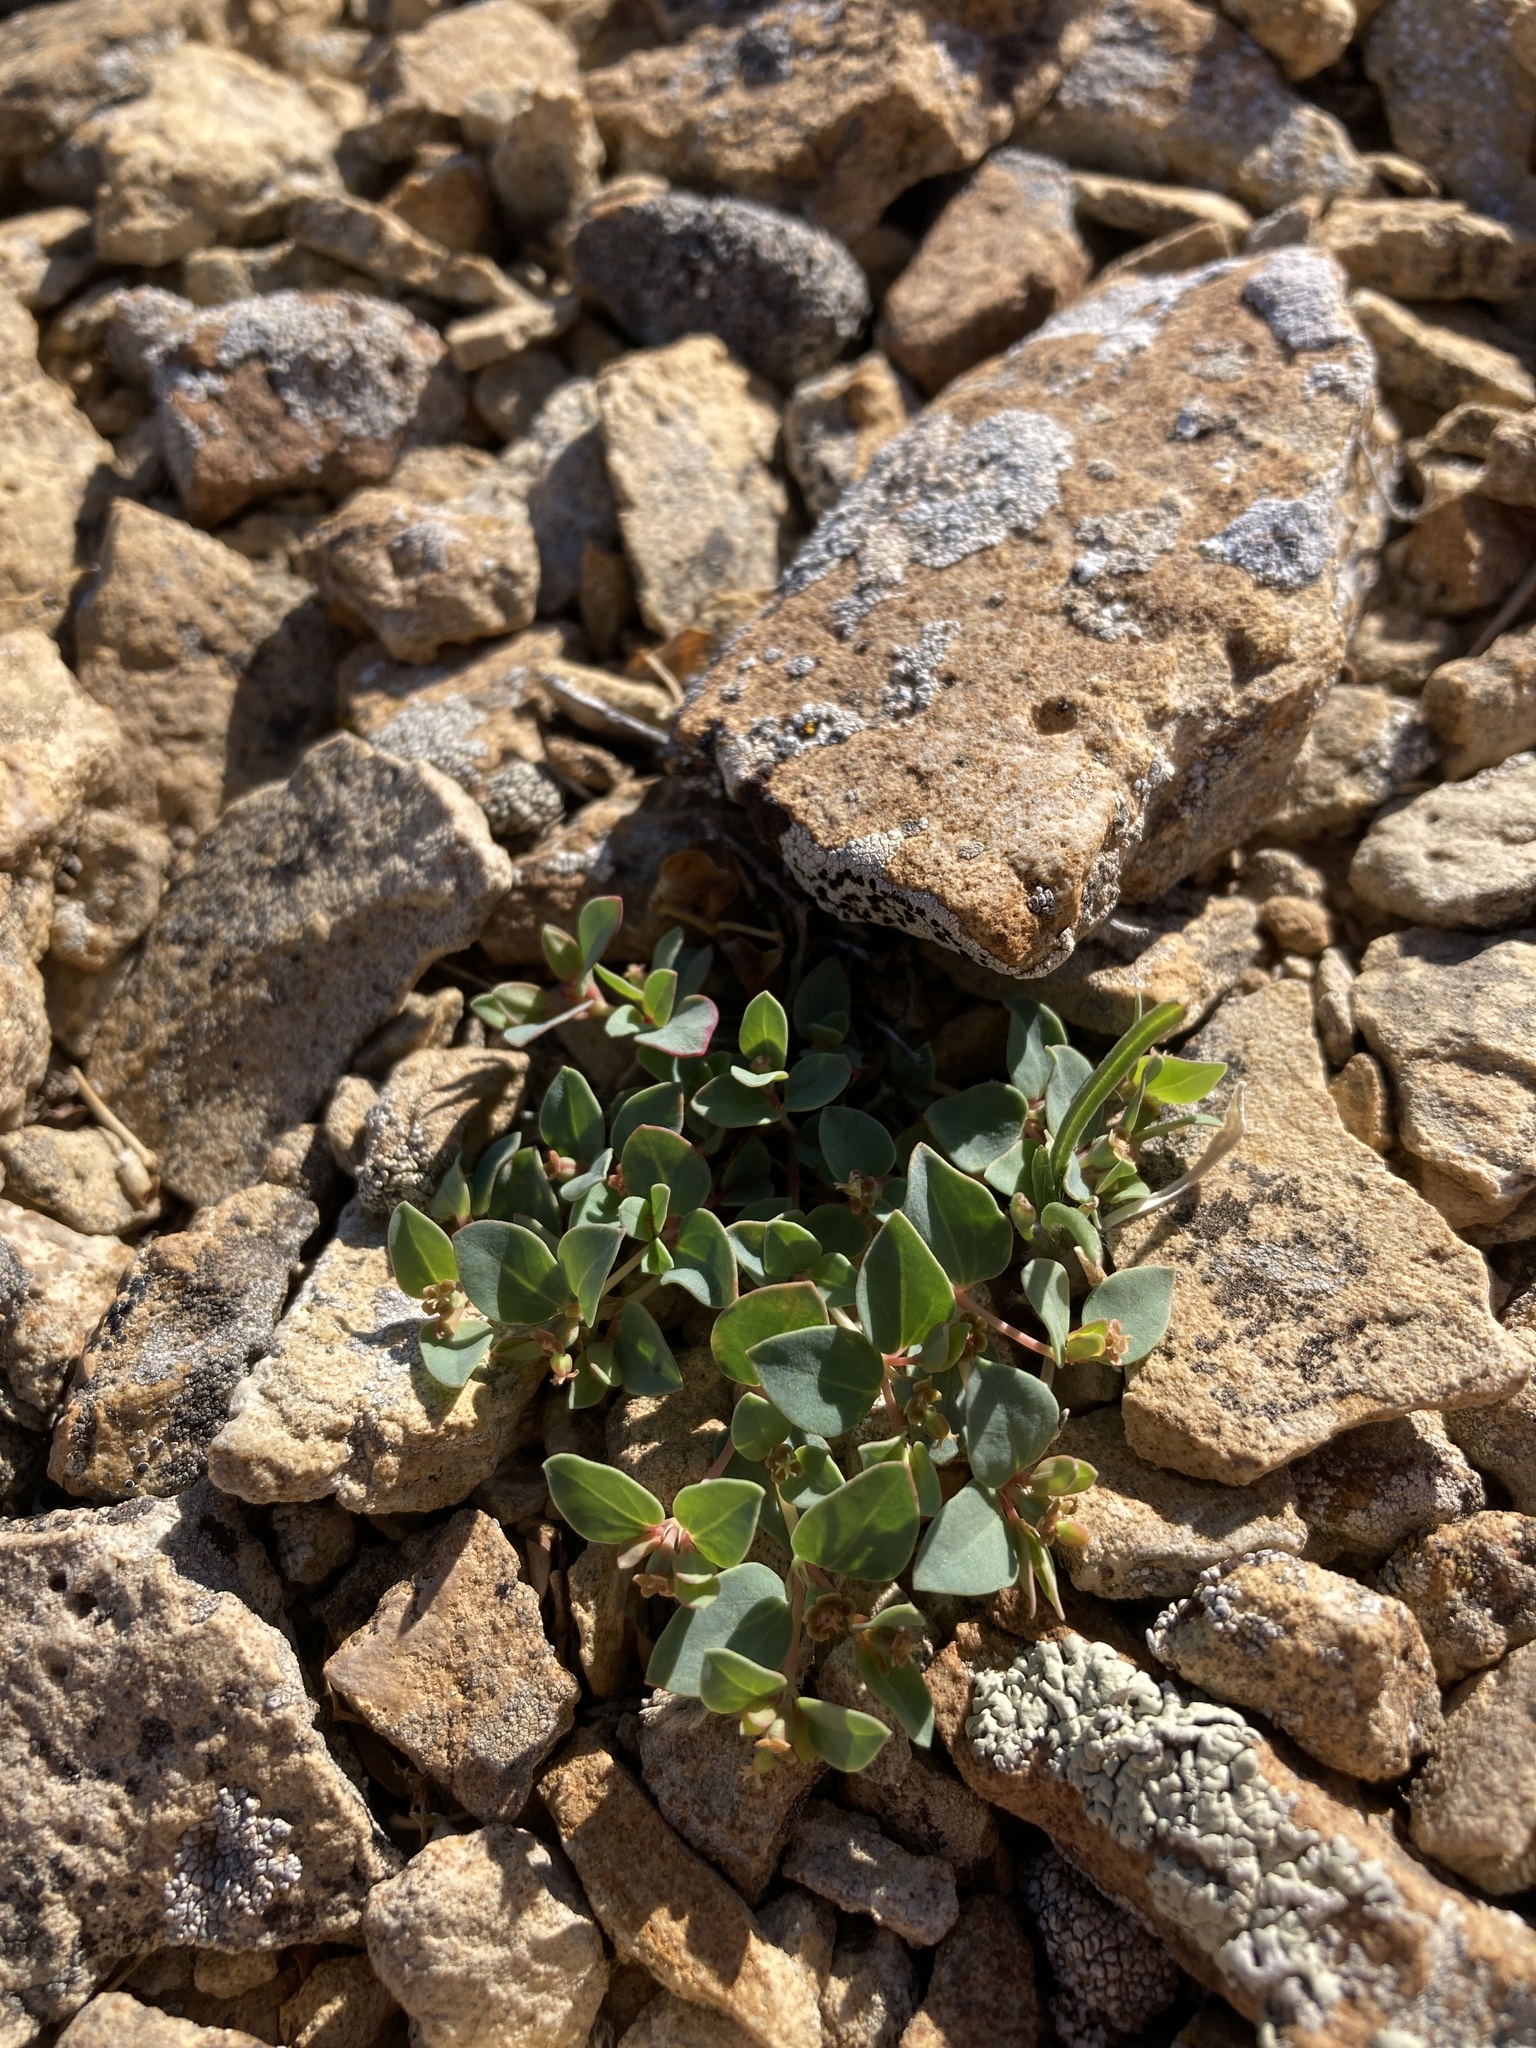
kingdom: Plantae
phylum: Tracheophyta
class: Magnoliopsida
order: Malpighiales
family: Euphorbiaceae
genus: Euphorbia
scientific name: Euphorbia fendleri
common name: Fendler's euphorbia
